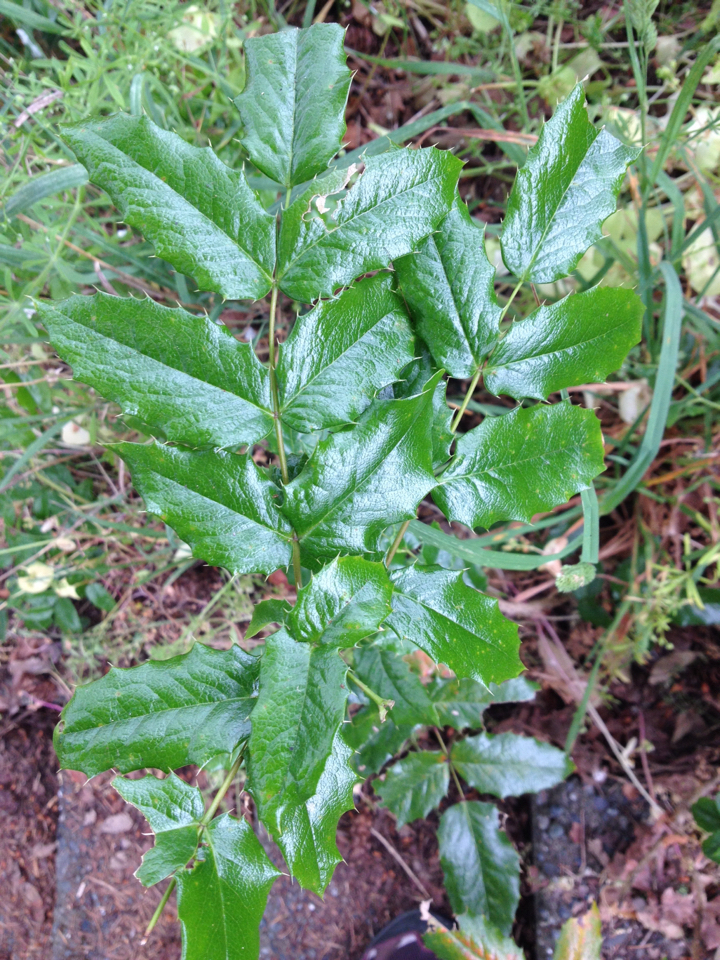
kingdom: Plantae
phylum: Tracheophyta
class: Magnoliopsida
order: Ranunculales
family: Berberidaceae
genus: Mahonia
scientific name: Mahonia aquifolium
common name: Oregon-grape
